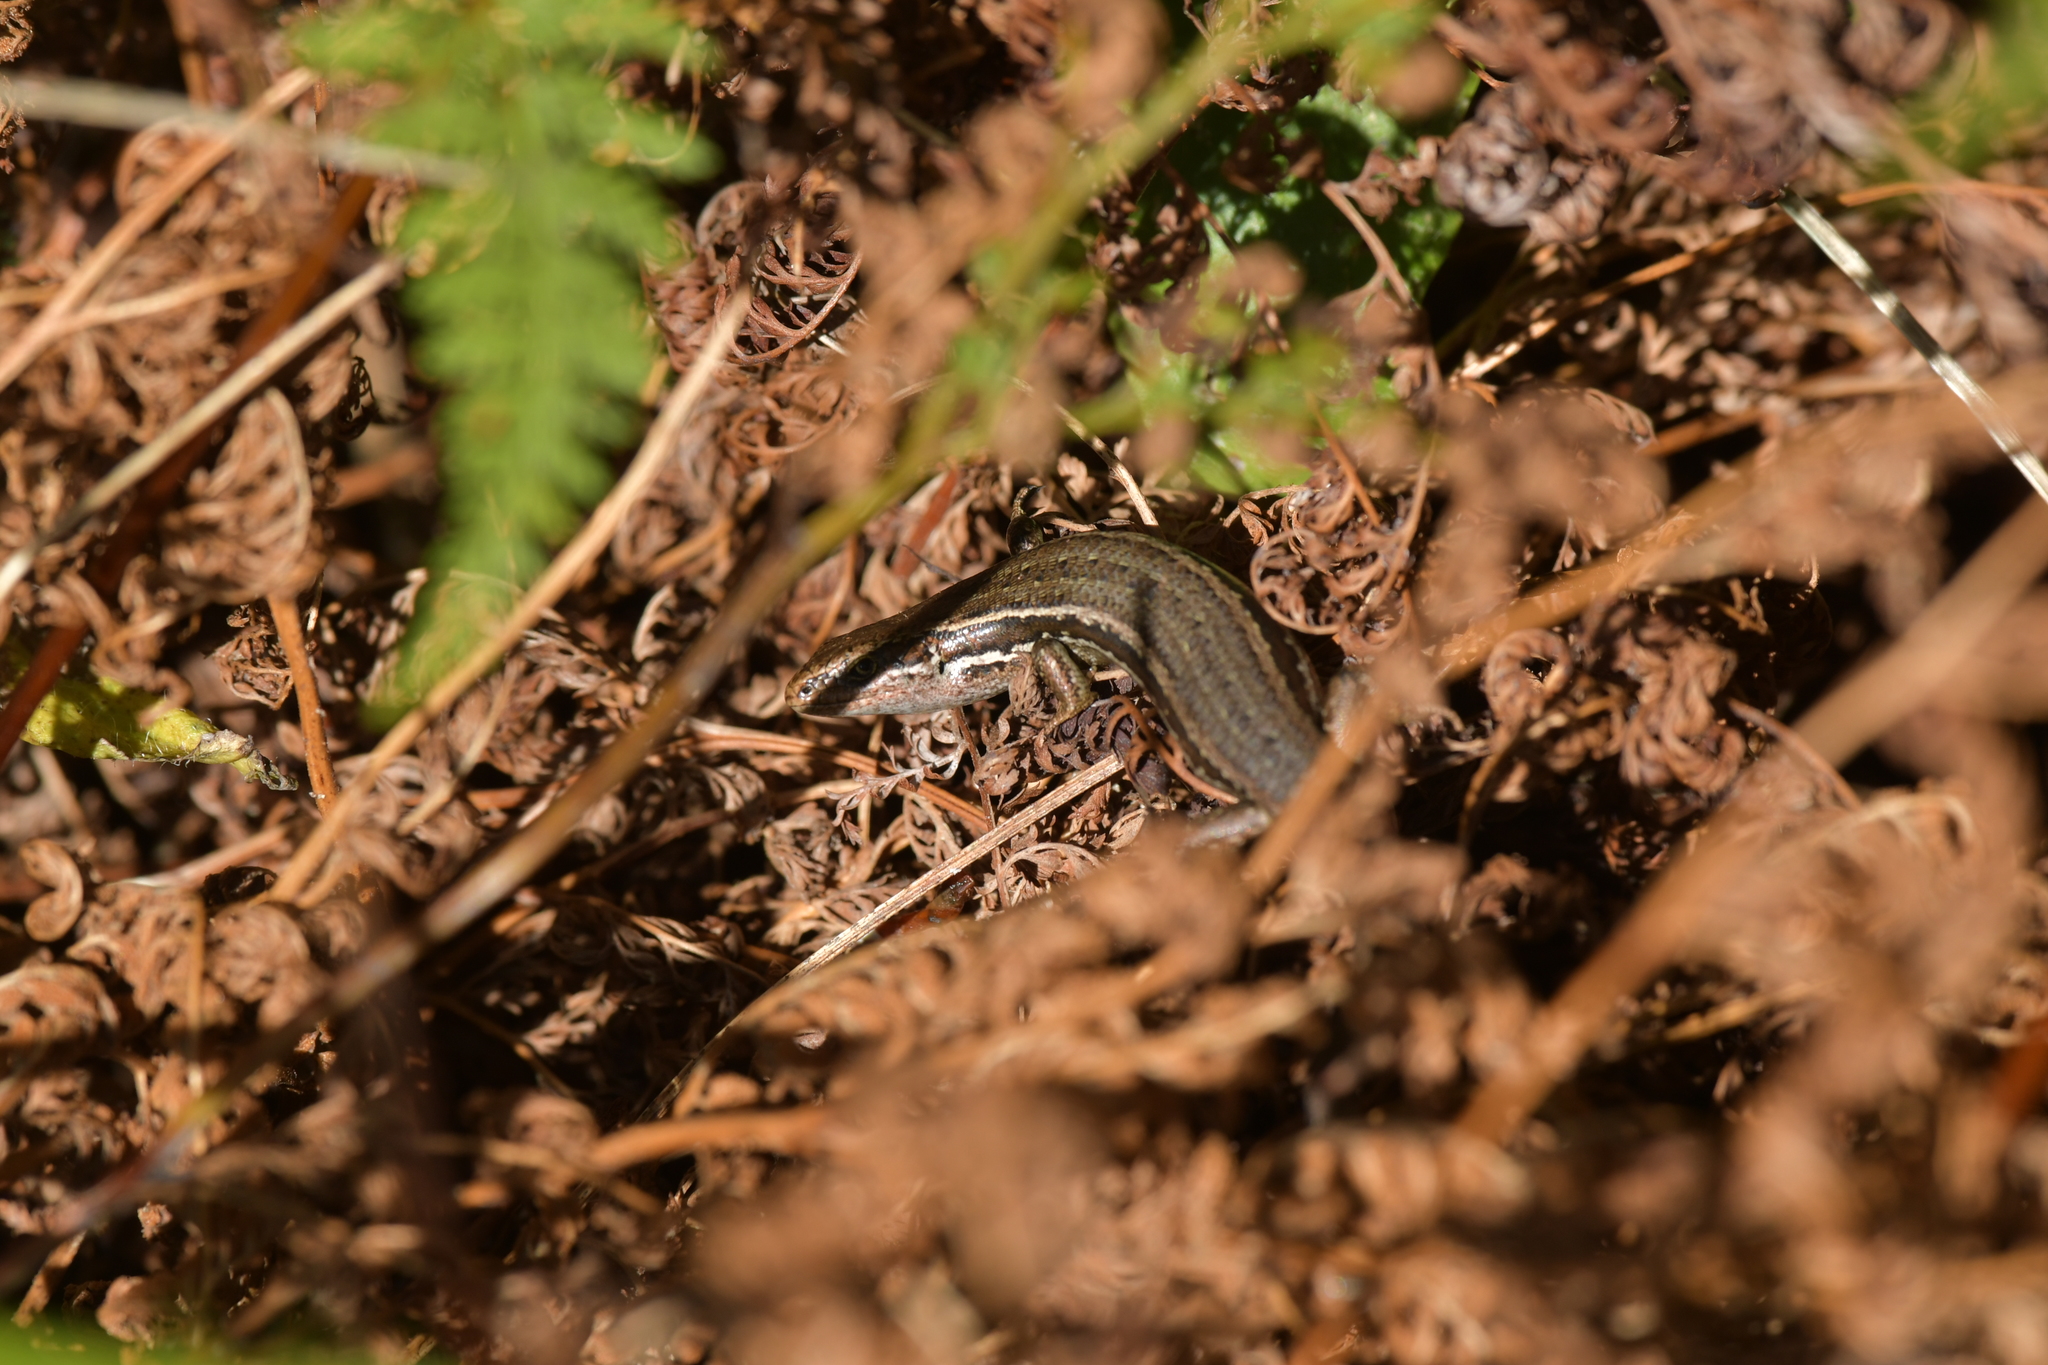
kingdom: Animalia
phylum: Chordata
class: Squamata
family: Scincidae
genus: Oligosoma
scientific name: Oligosoma polychroma
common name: Common new zealand skink
